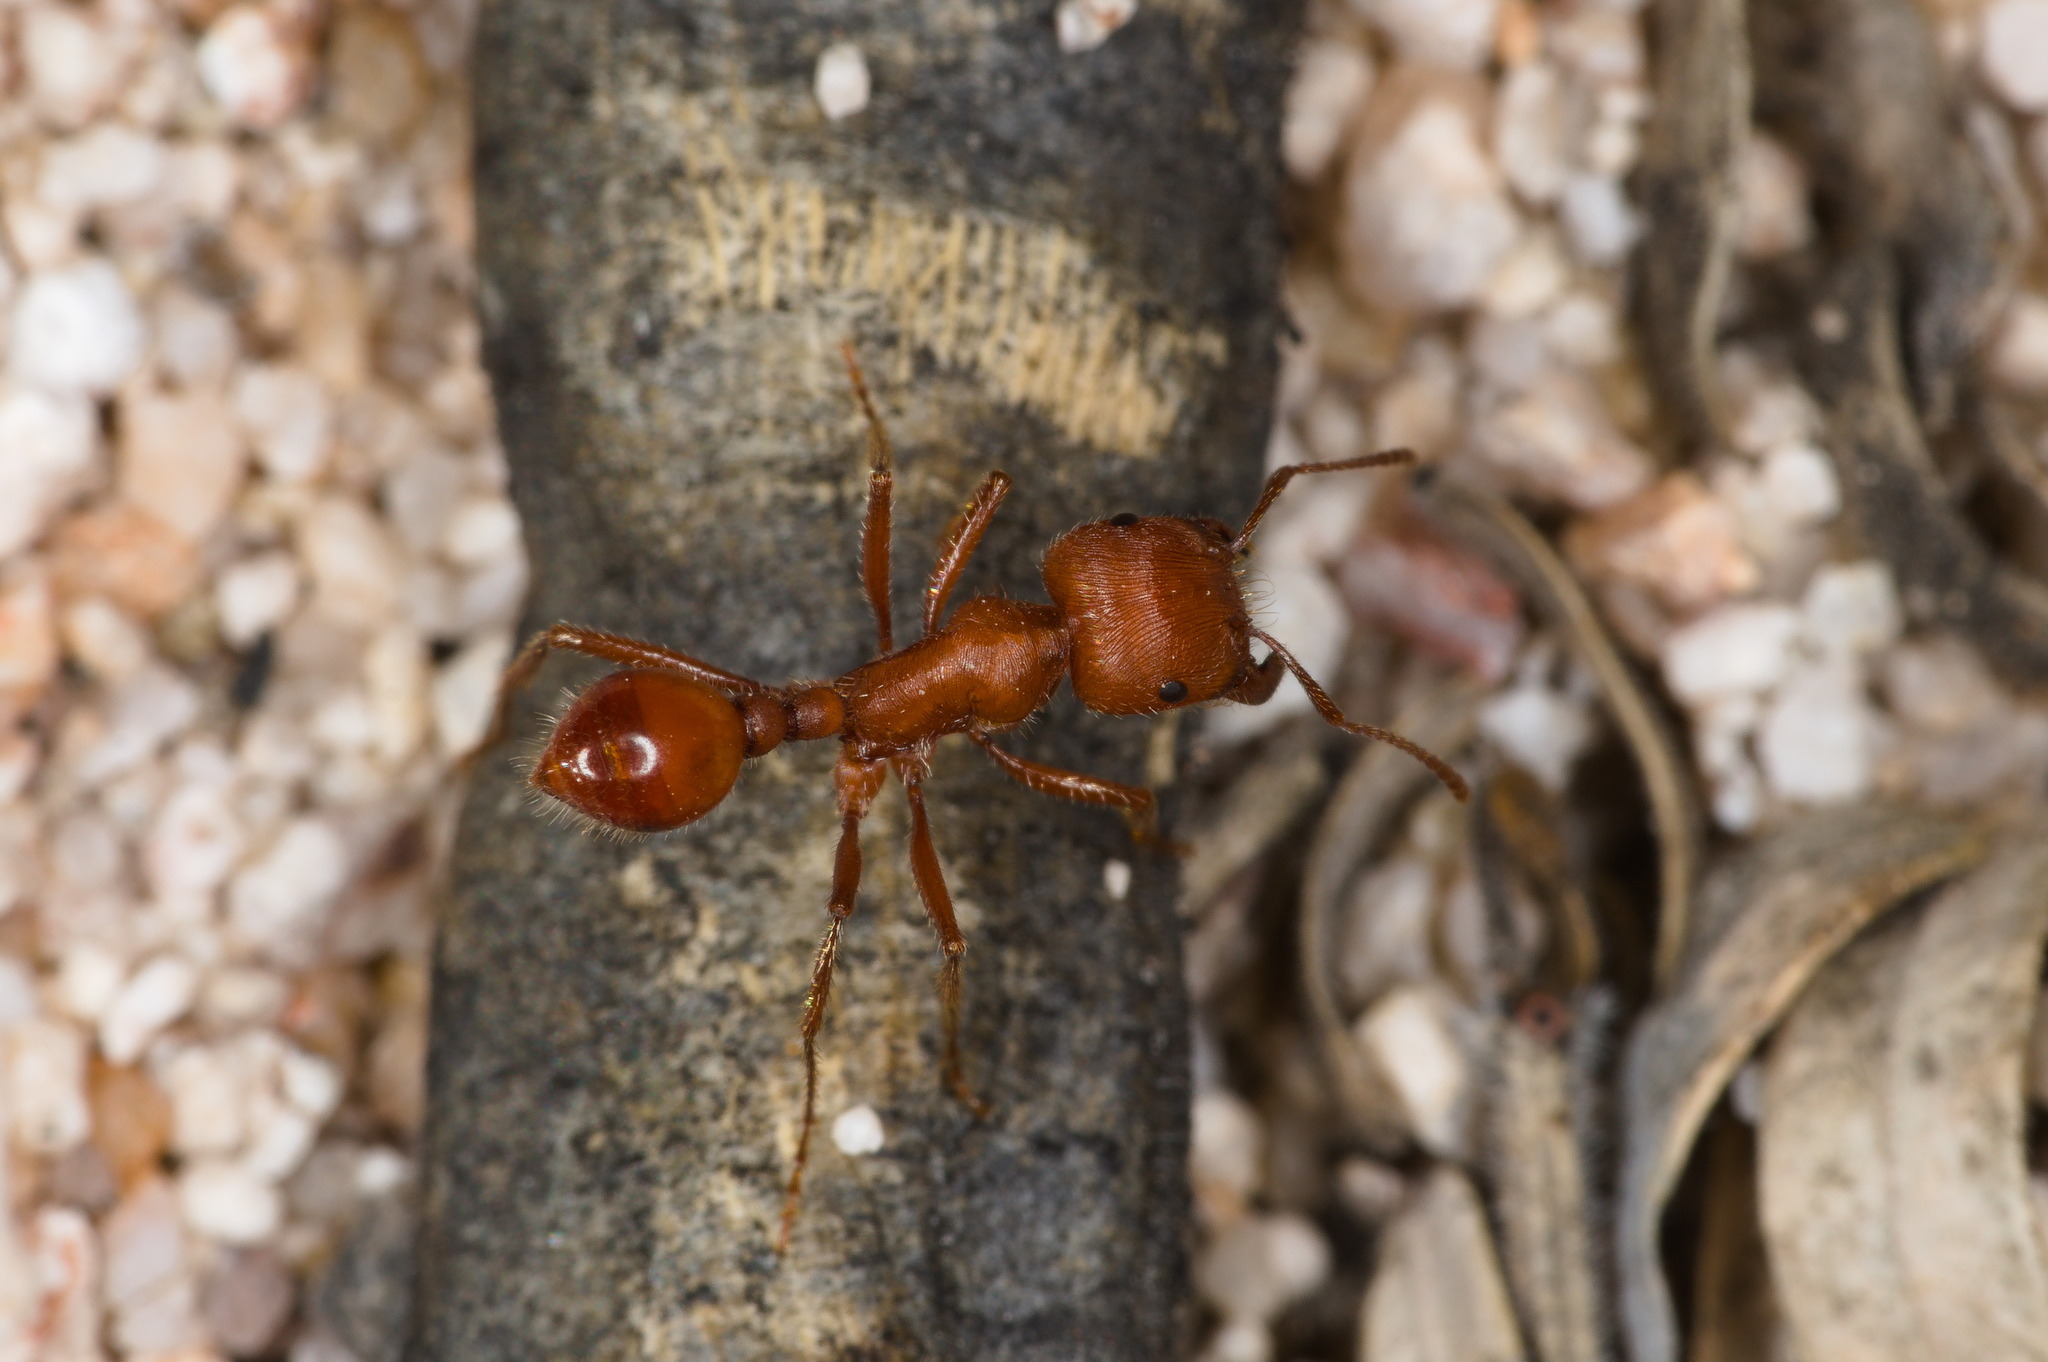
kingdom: Animalia
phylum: Arthropoda
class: Insecta
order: Hymenoptera
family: Formicidae
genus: Pogonomyrmex
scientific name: Pogonomyrmex maricopa
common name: Maricopa harvester ant
